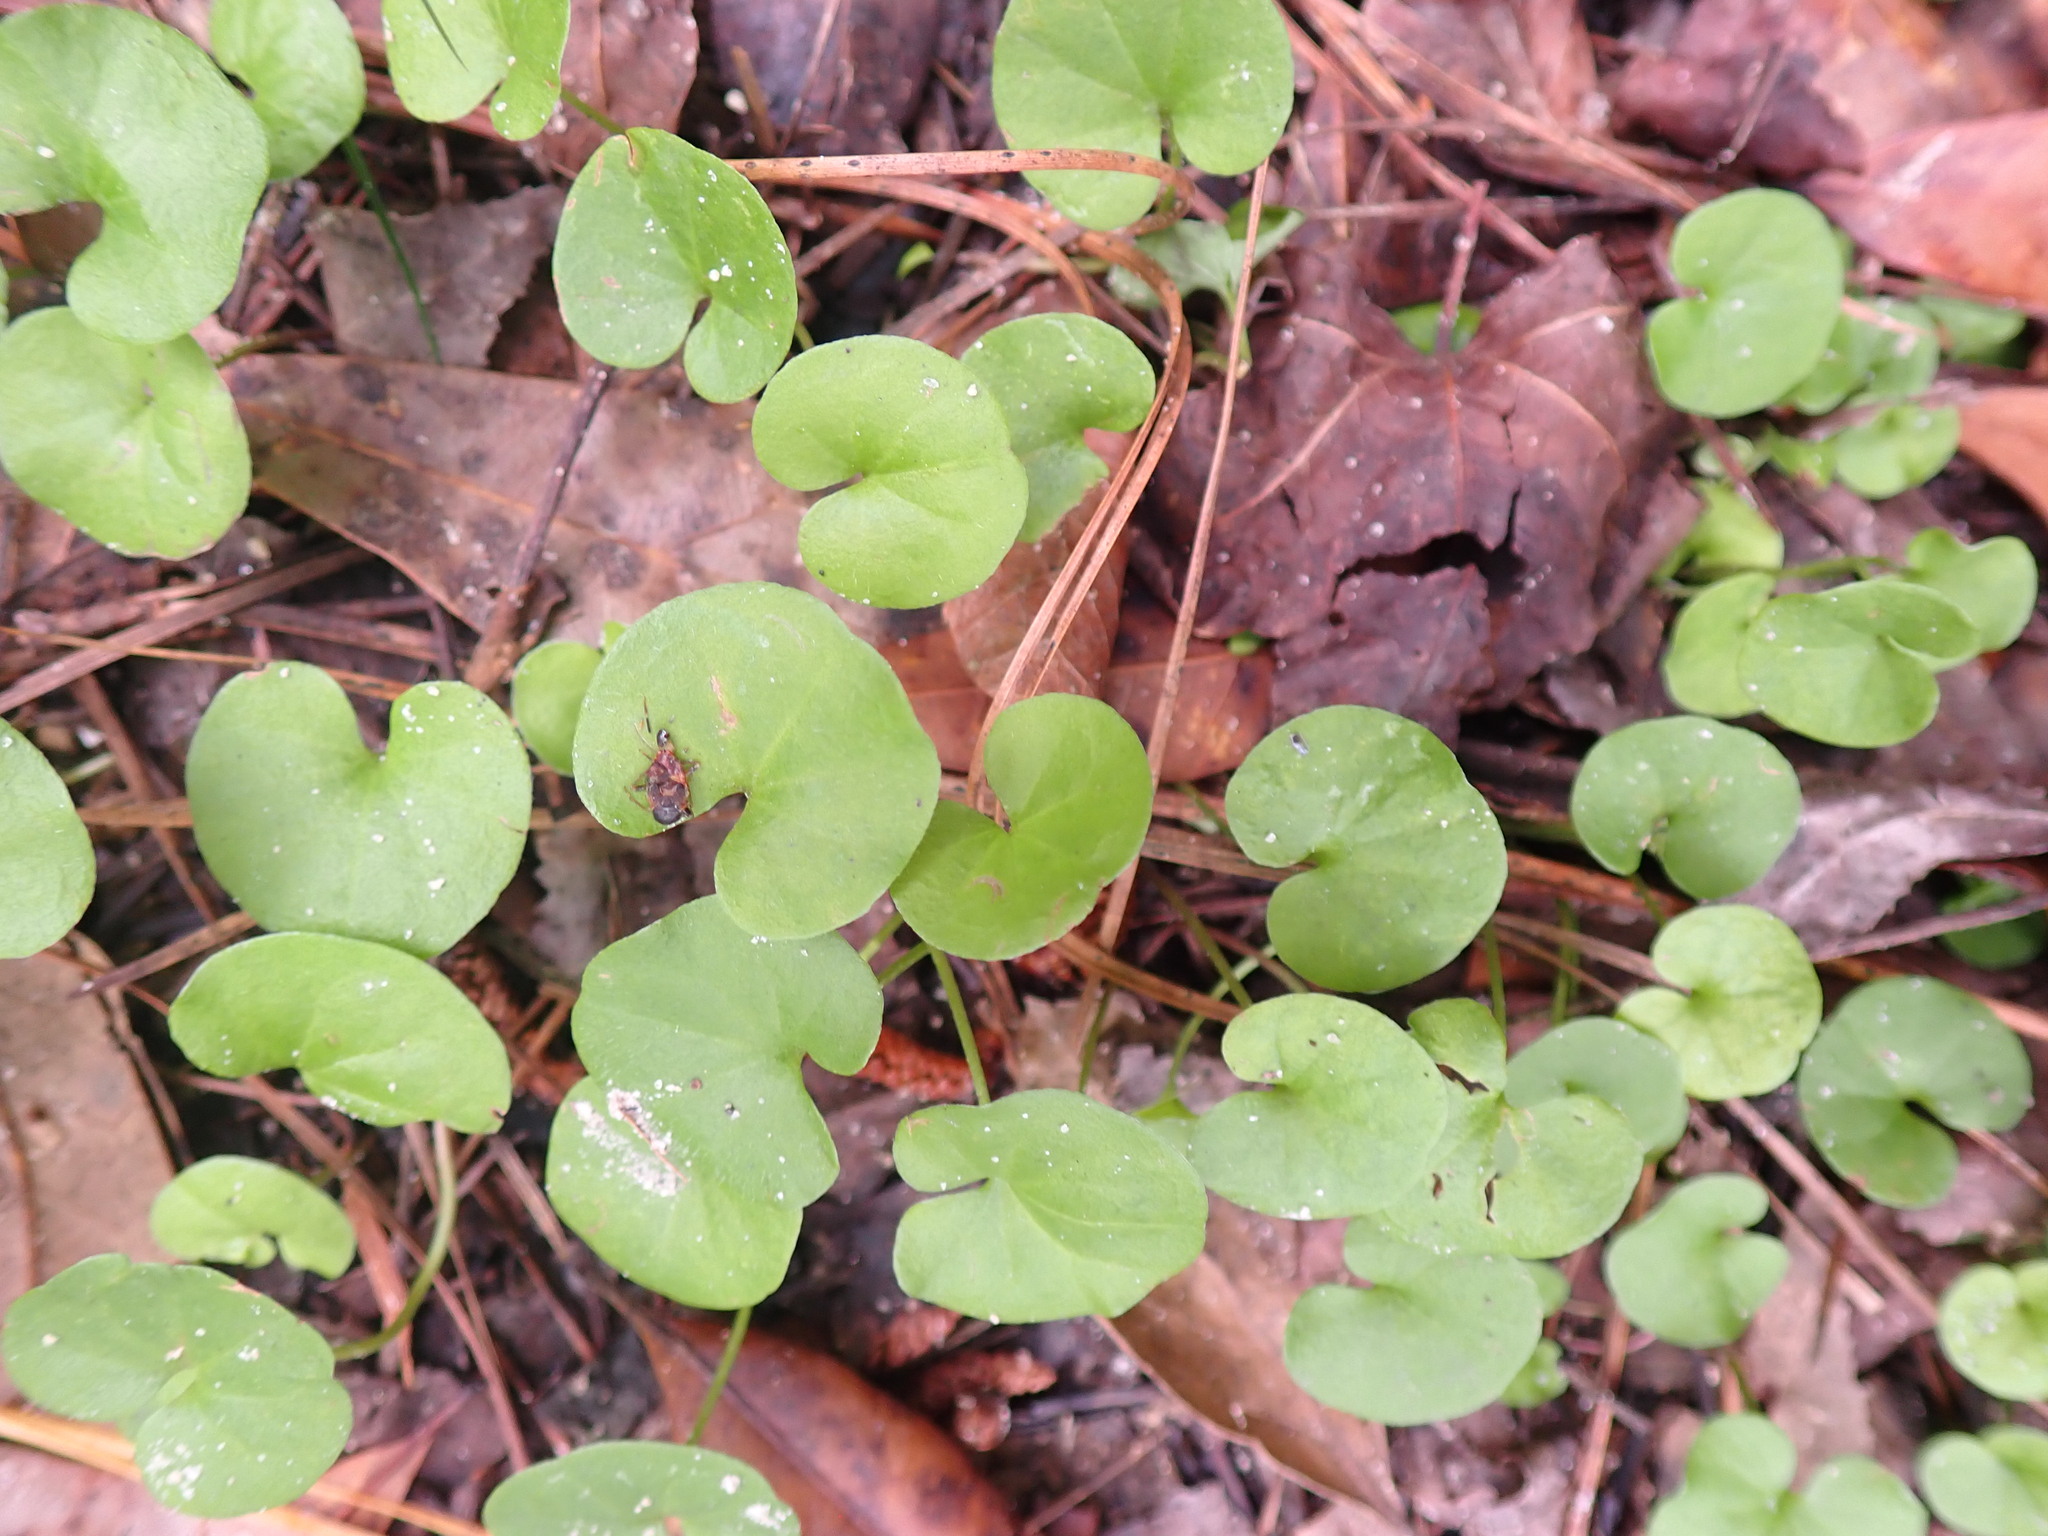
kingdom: Plantae
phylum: Tracheophyta
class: Magnoliopsida
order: Solanales
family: Convolvulaceae
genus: Dichondra
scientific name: Dichondra carolinensis
